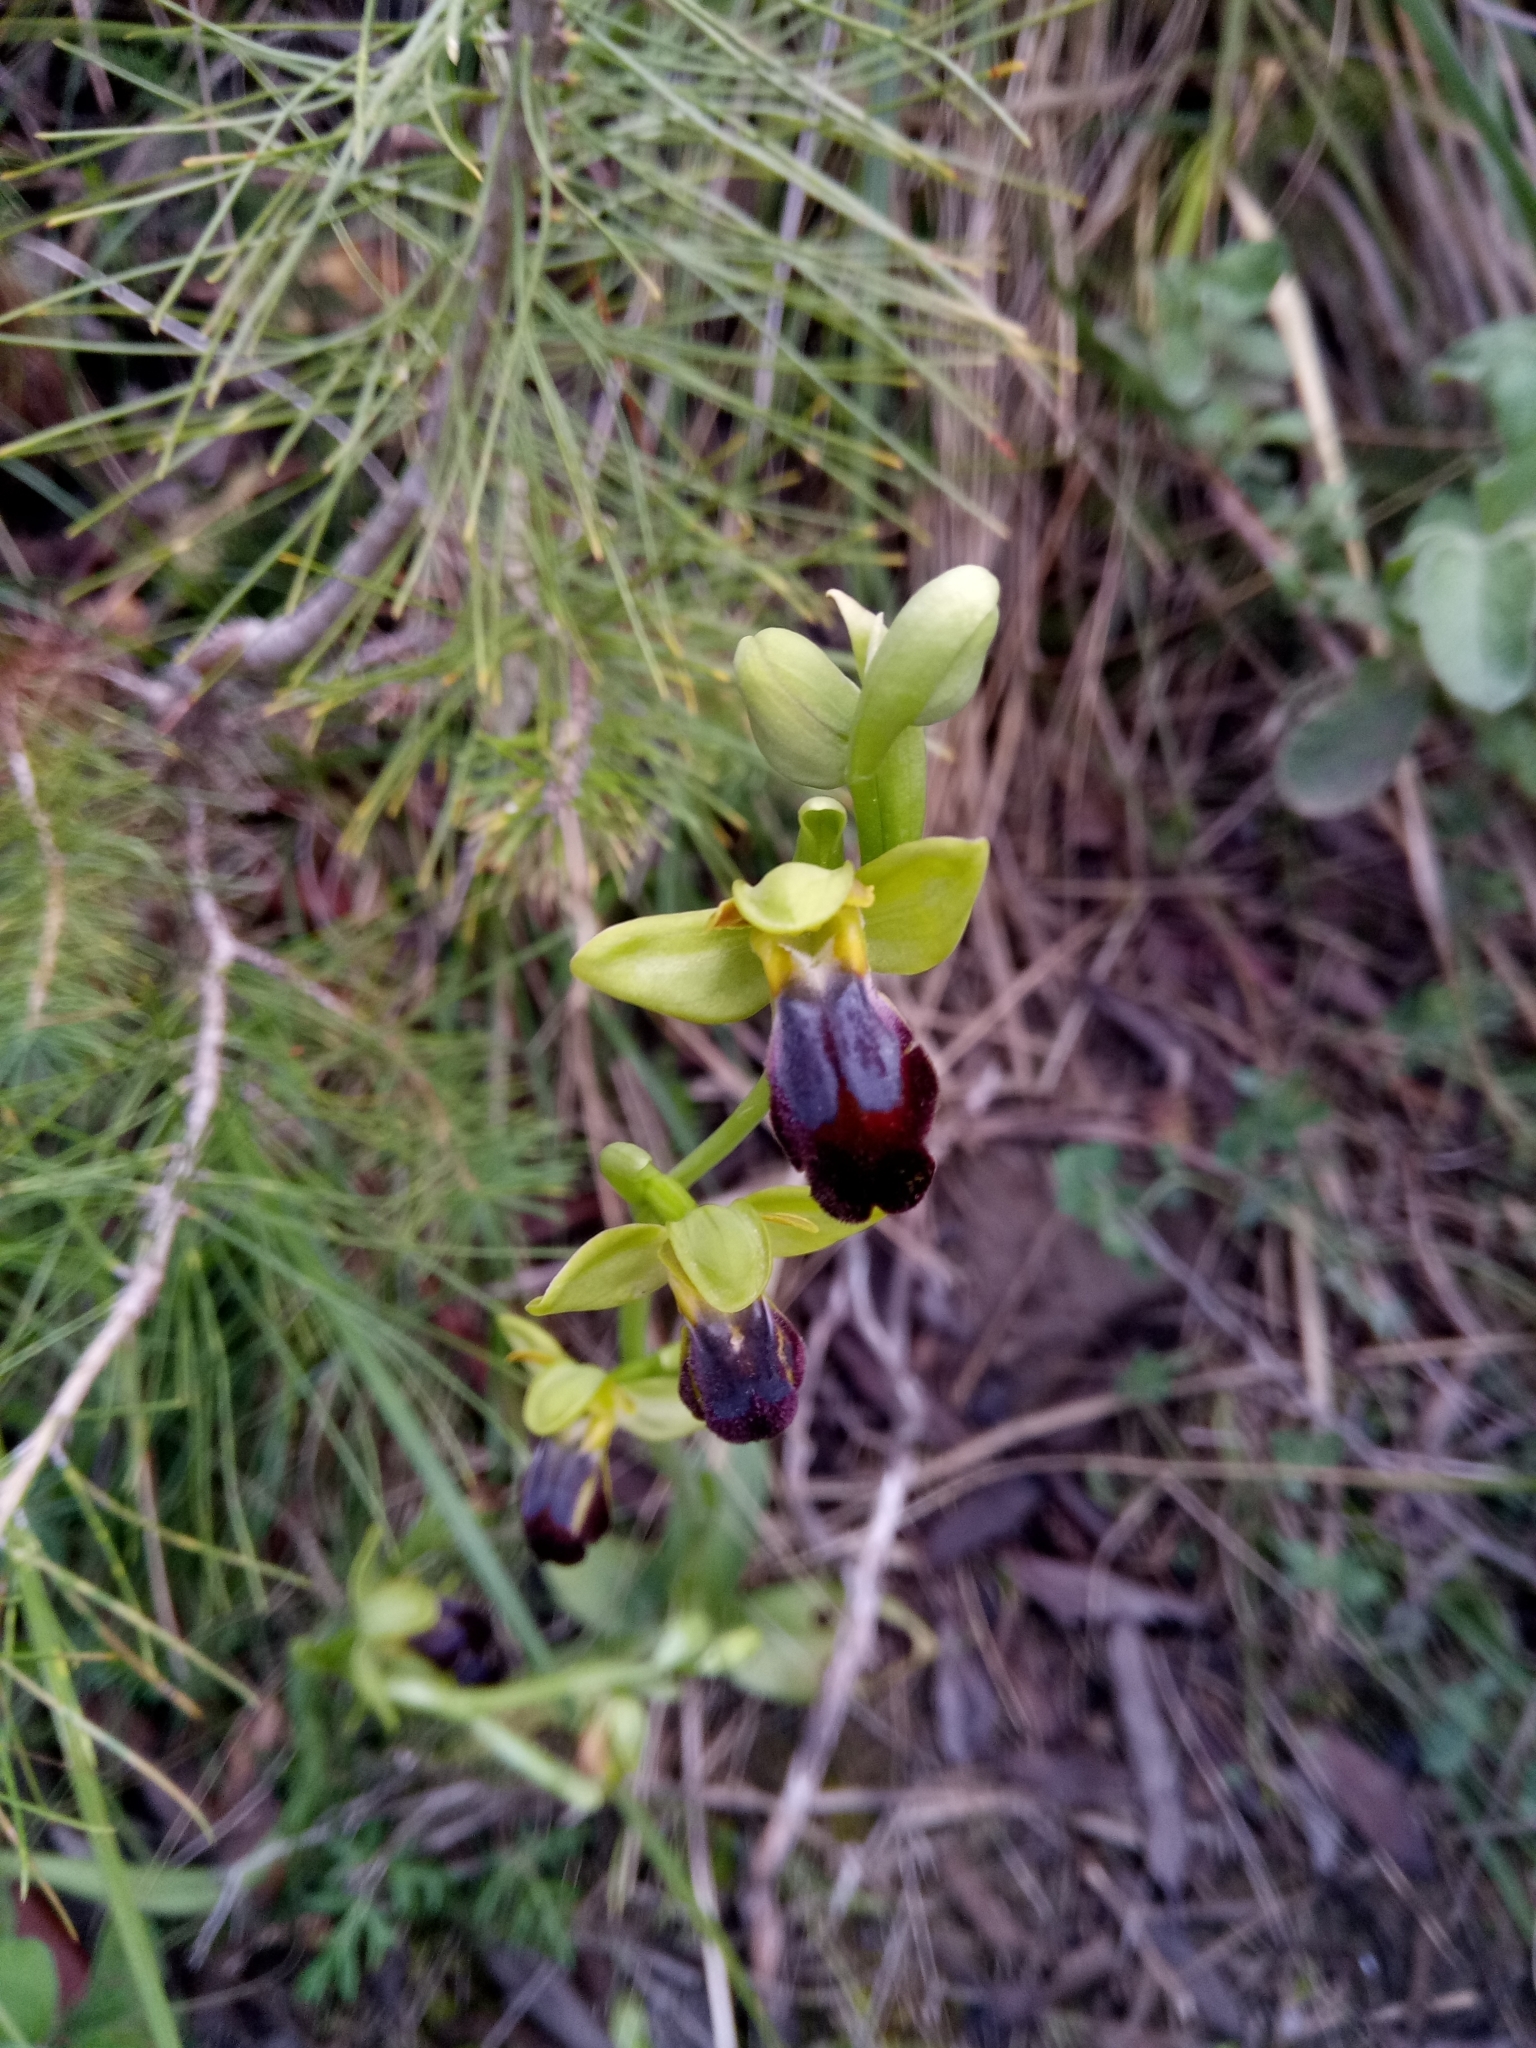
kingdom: Plantae
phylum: Tracheophyta
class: Liliopsida
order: Asparagales
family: Orchidaceae
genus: Ophrys
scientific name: Ophrys fusca
